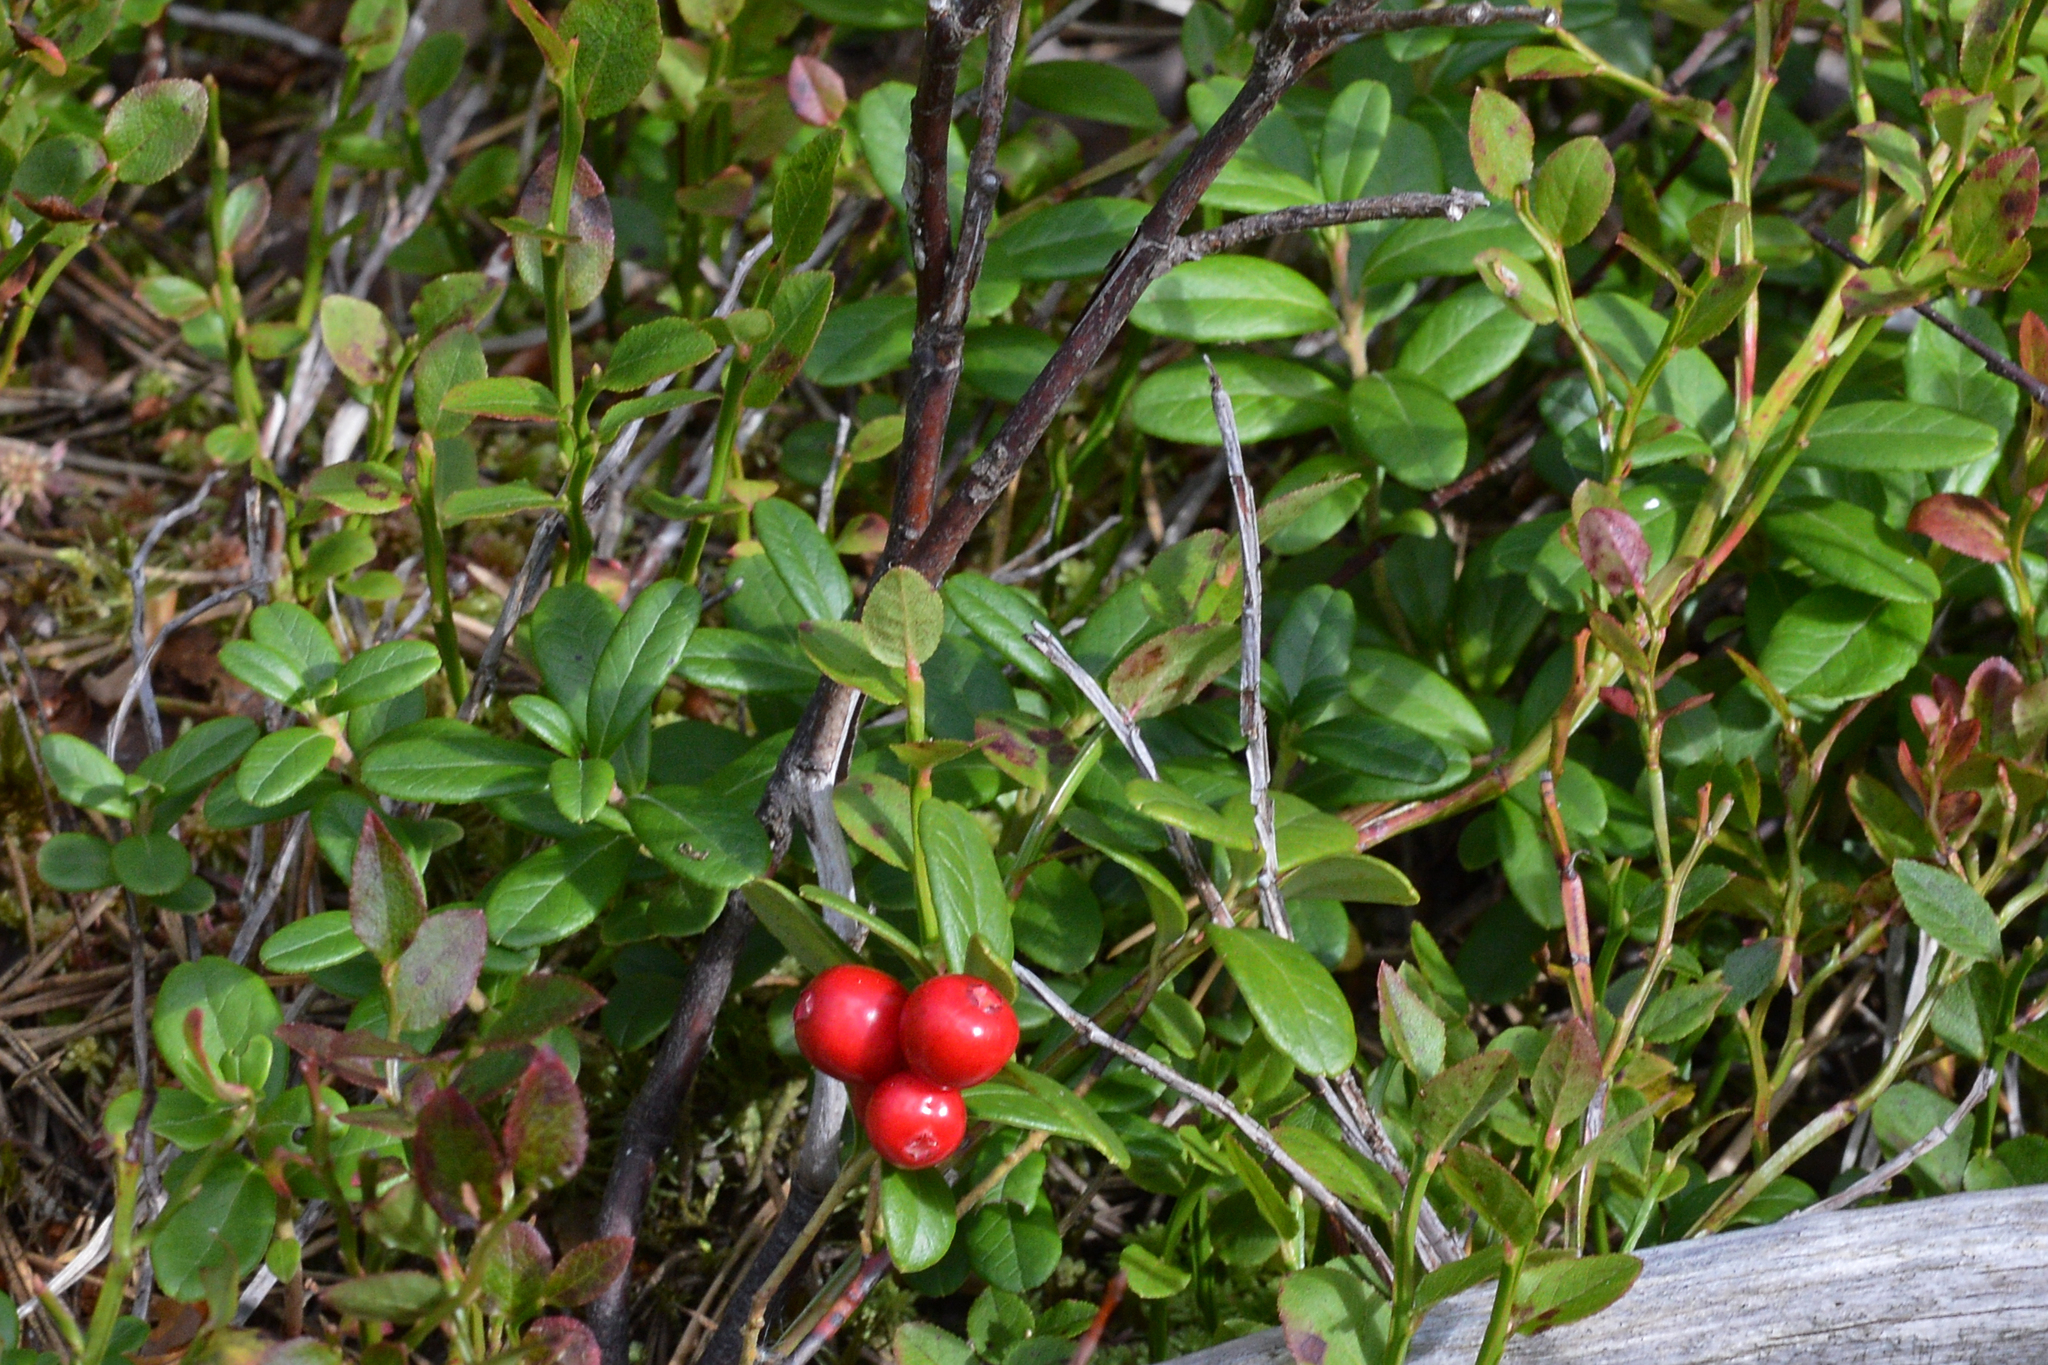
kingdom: Plantae
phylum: Tracheophyta
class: Magnoliopsida
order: Ericales
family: Ericaceae
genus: Vaccinium
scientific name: Vaccinium vitis-idaea
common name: Cowberry
